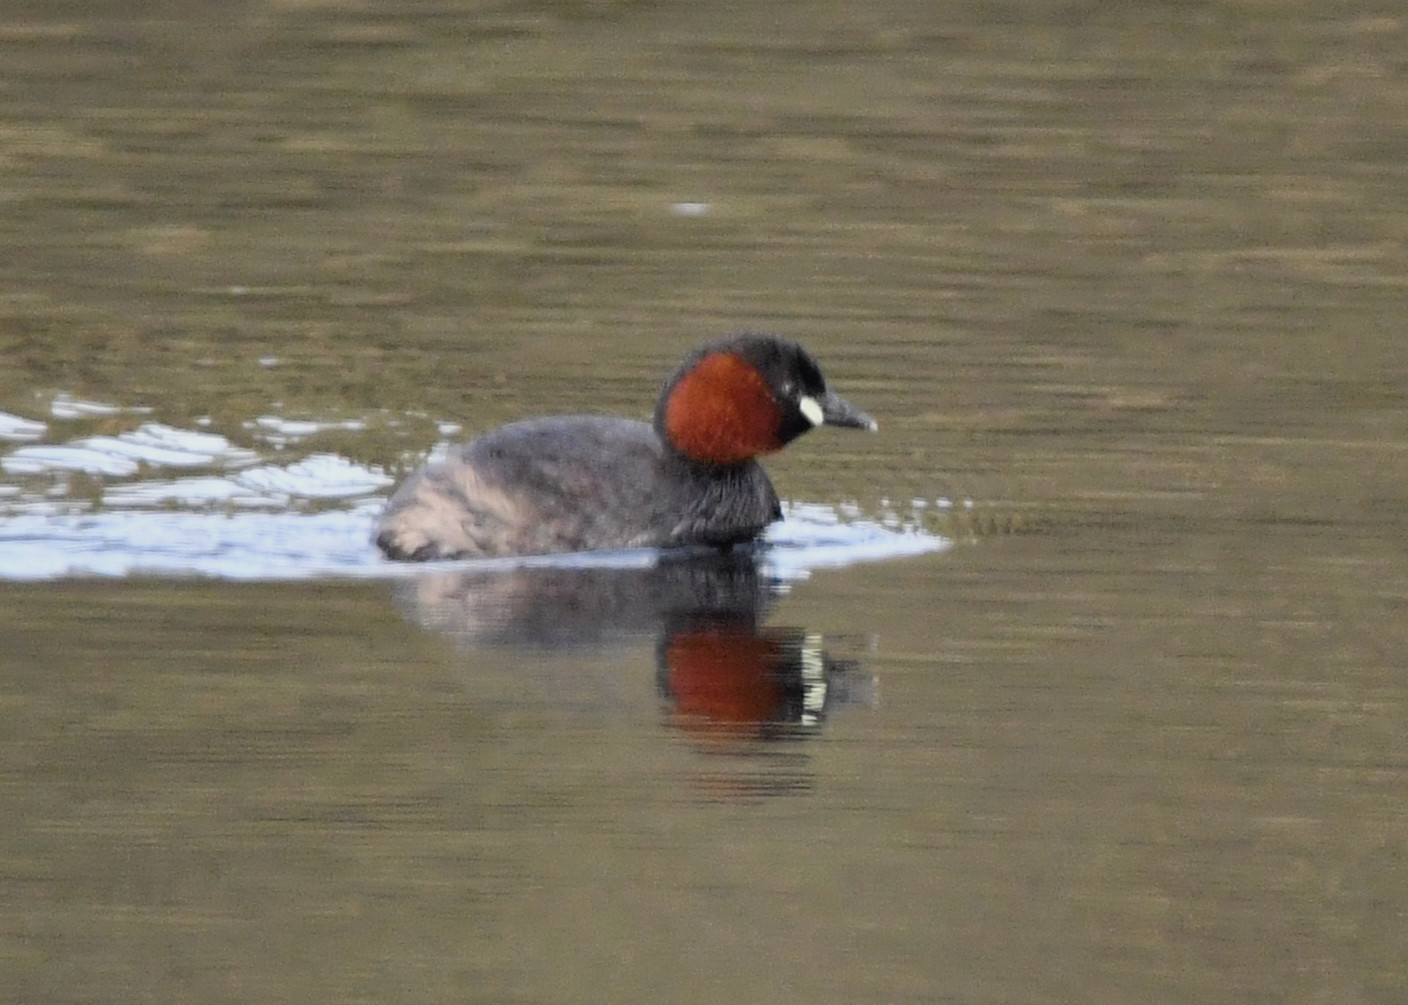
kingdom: Animalia
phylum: Chordata
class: Aves
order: Podicipediformes
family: Podicipedidae
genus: Tachybaptus
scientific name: Tachybaptus ruficollis
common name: Little grebe
